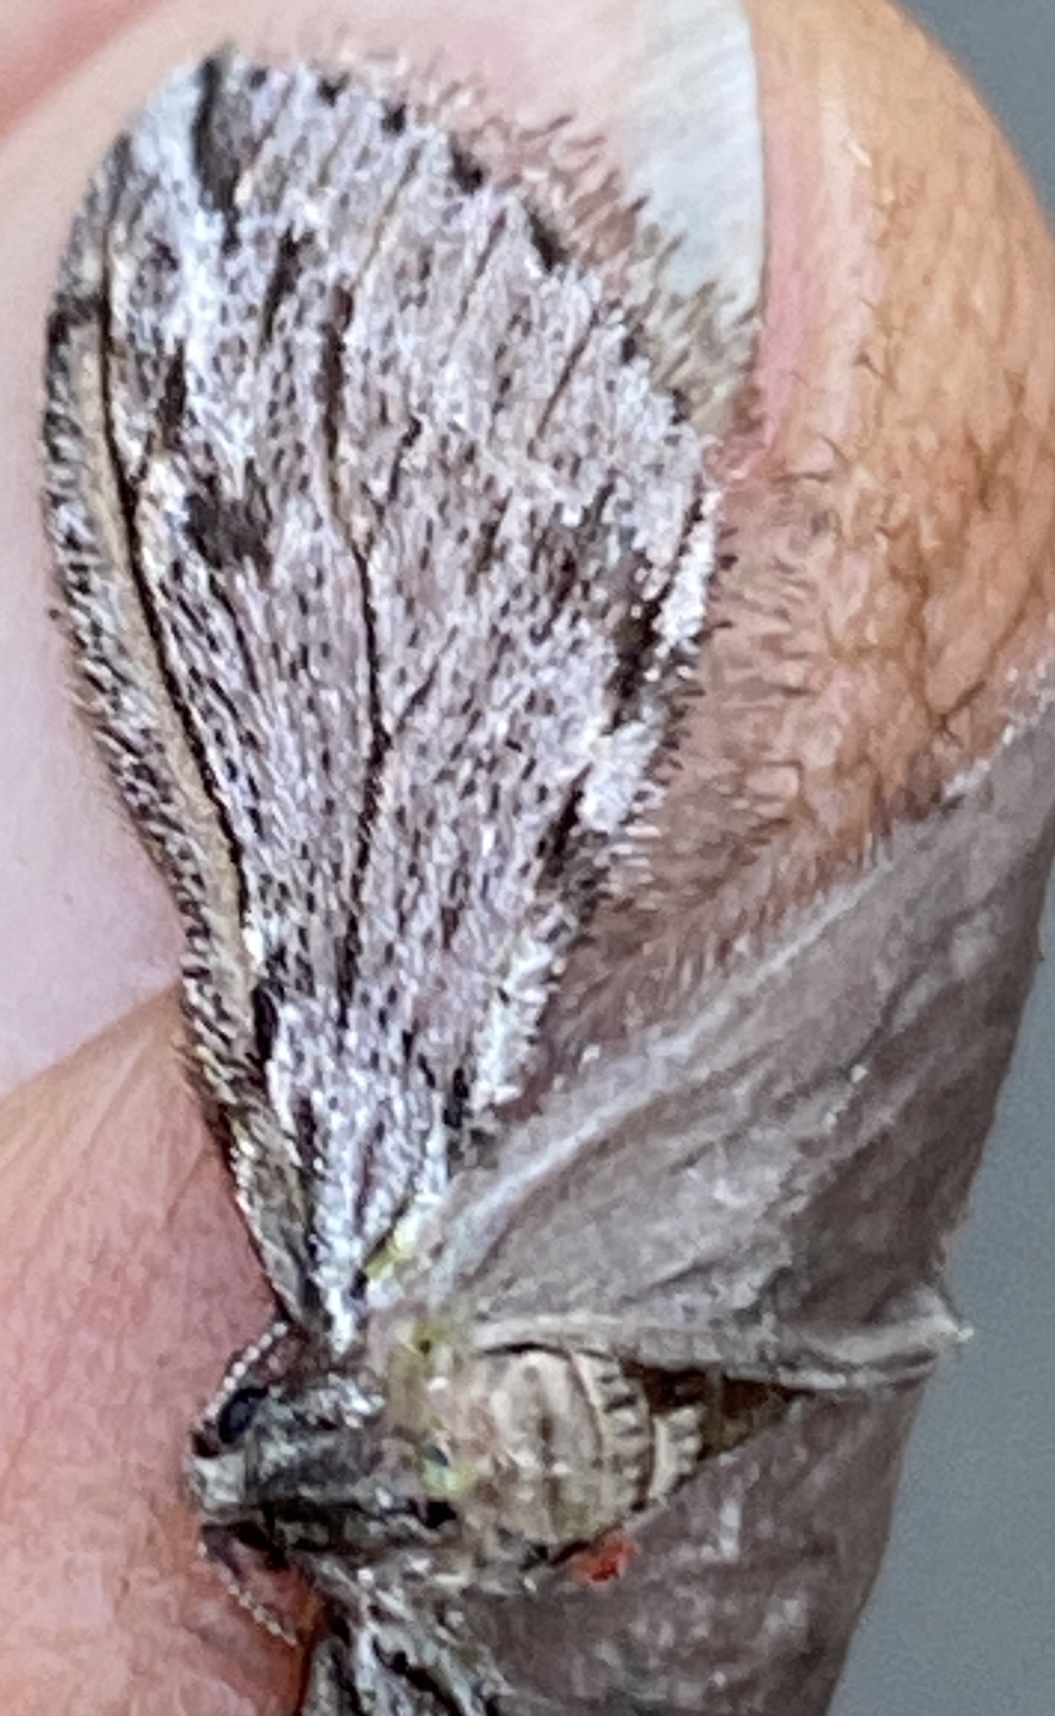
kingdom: Animalia
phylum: Arthropoda
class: Insecta
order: Lepidoptera
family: Geometridae
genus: Paleacrita
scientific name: Paleacrita longiciliata
